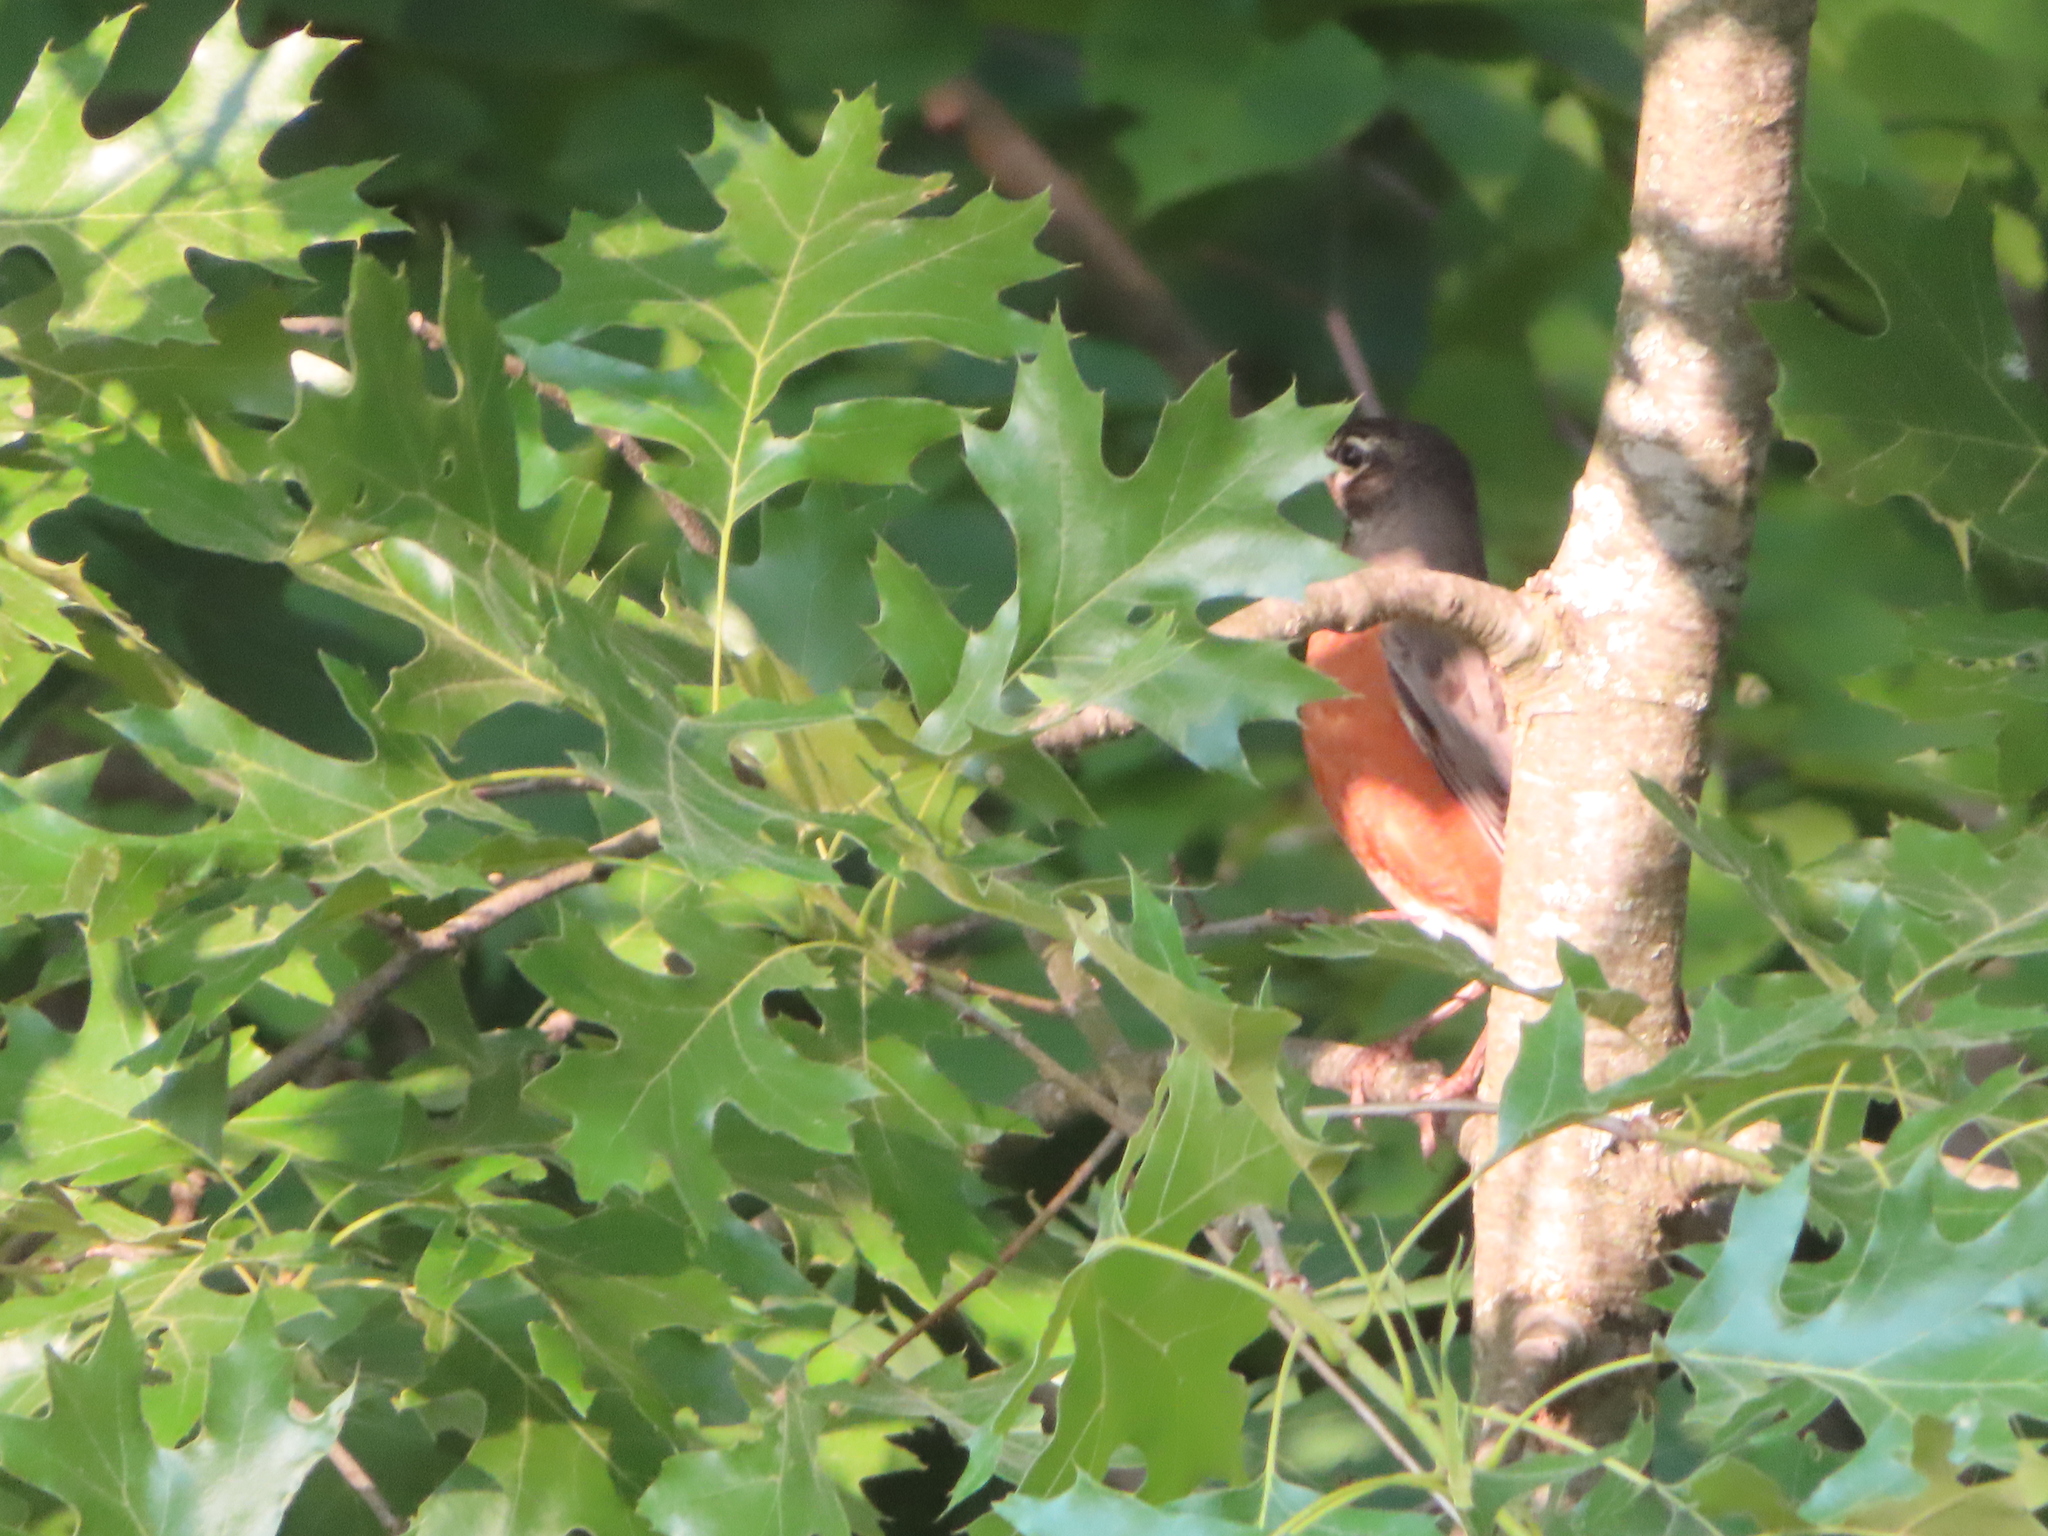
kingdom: Animalia
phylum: Chordata
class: Aves
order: Passeriformes
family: Turdidae
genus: Turdus
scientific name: Turdus migratorius
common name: American robin
